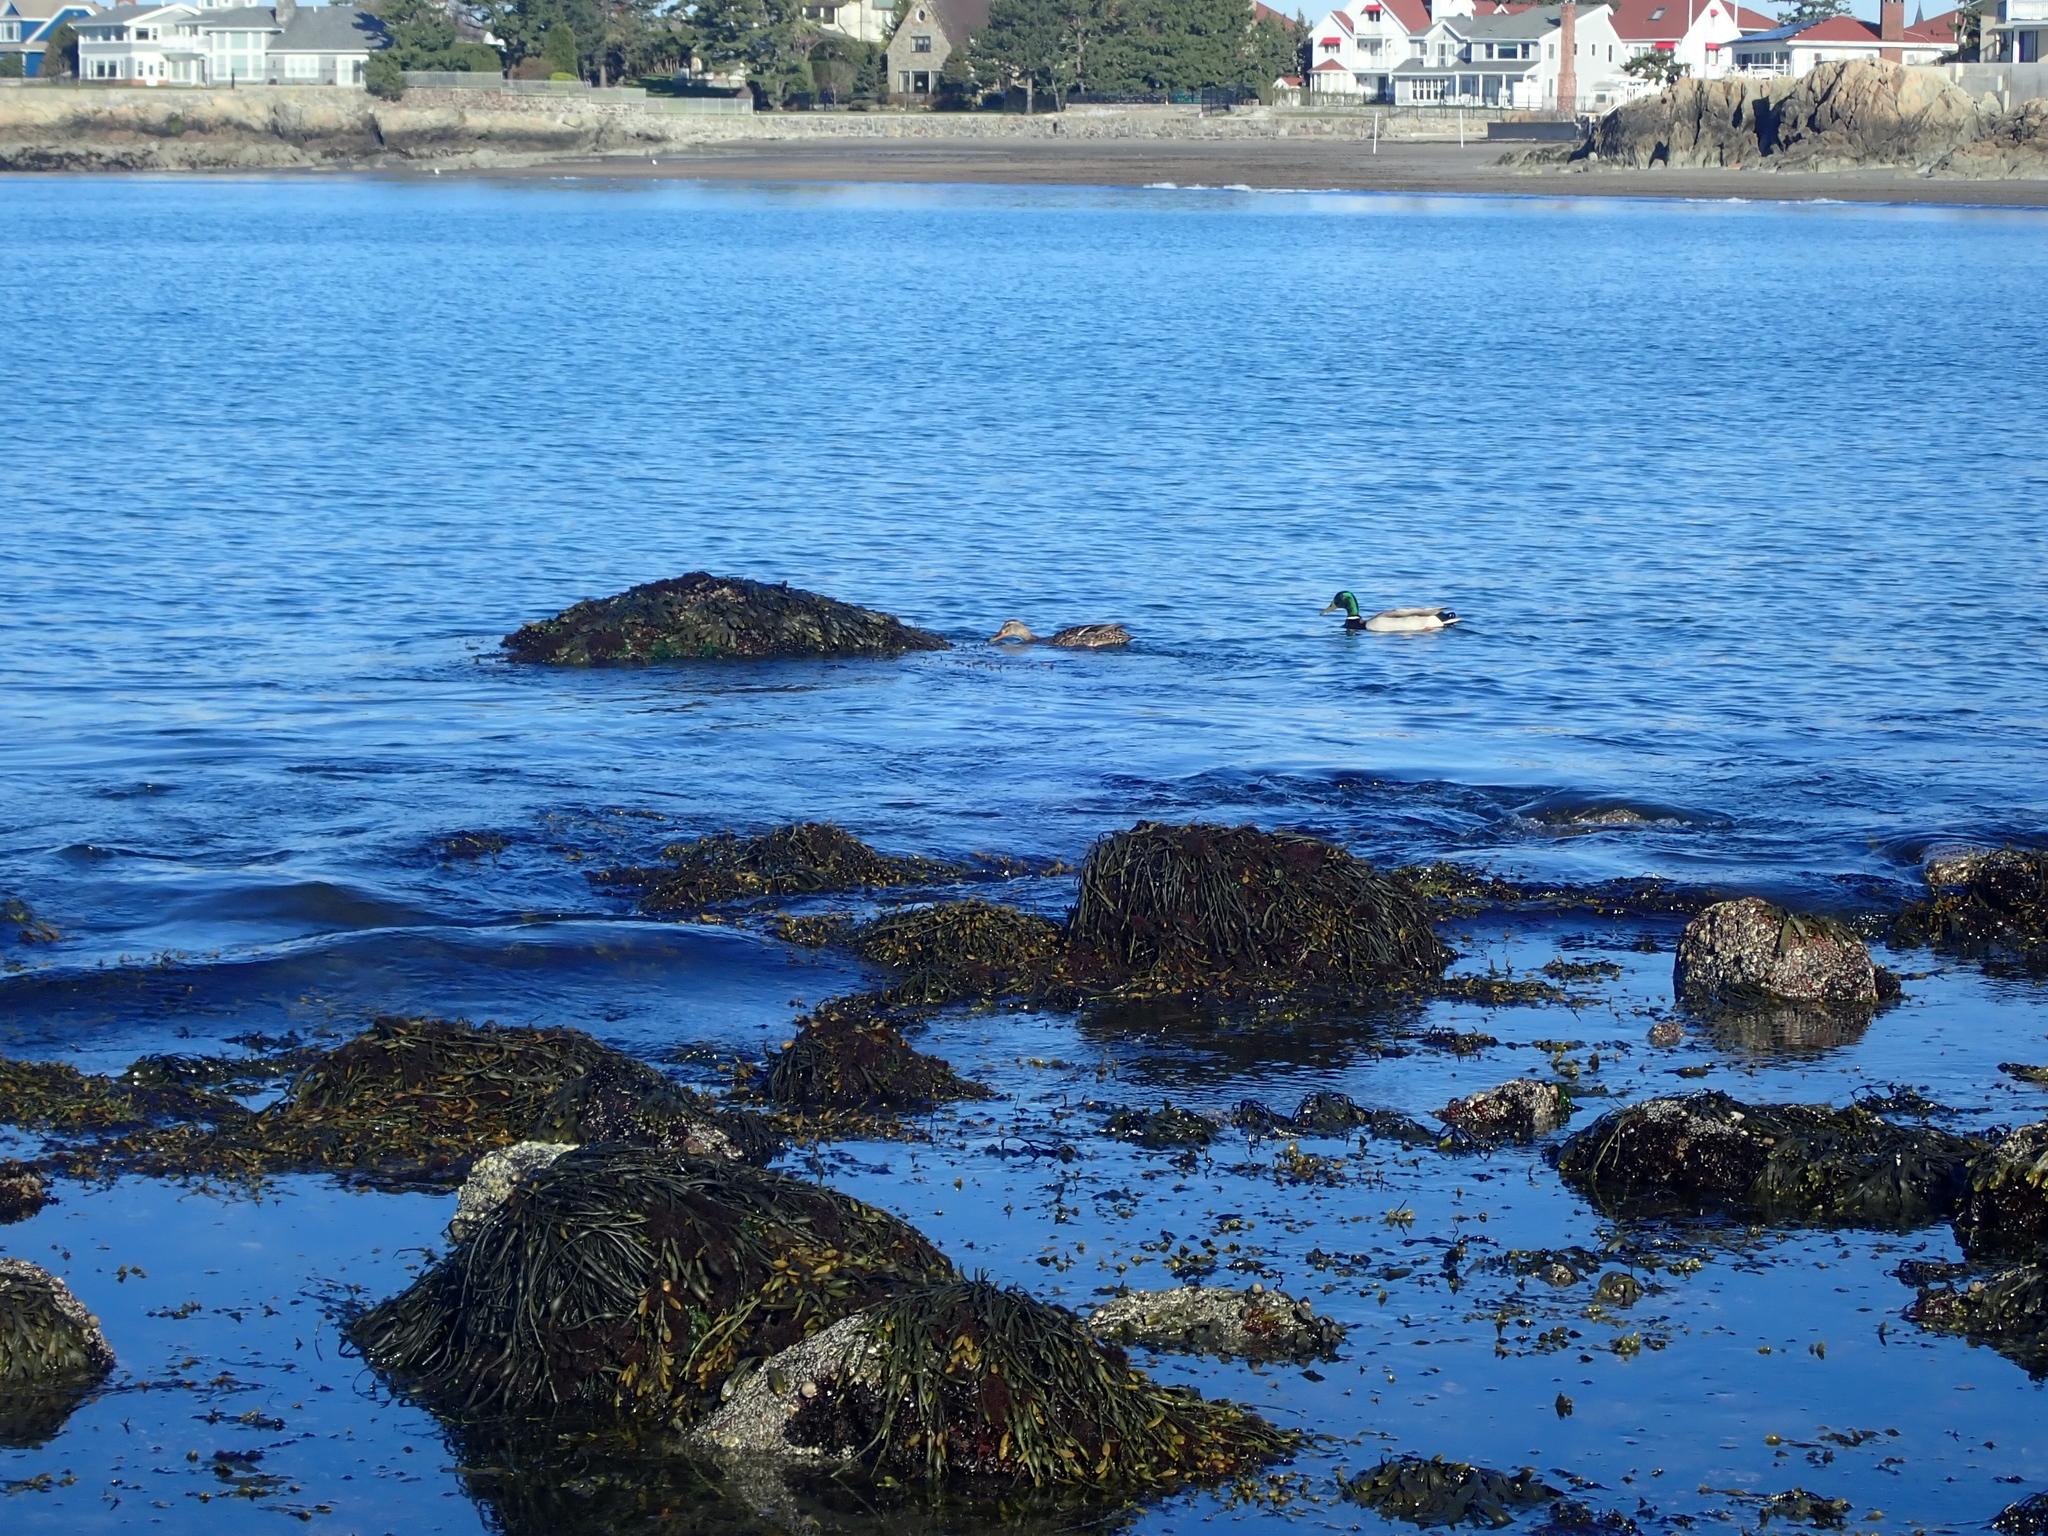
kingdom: Animalia
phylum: Chordata
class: Aves
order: Anseriformes
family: Anatidae
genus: Anas
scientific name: Anas platyrhynchos
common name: Mallard
